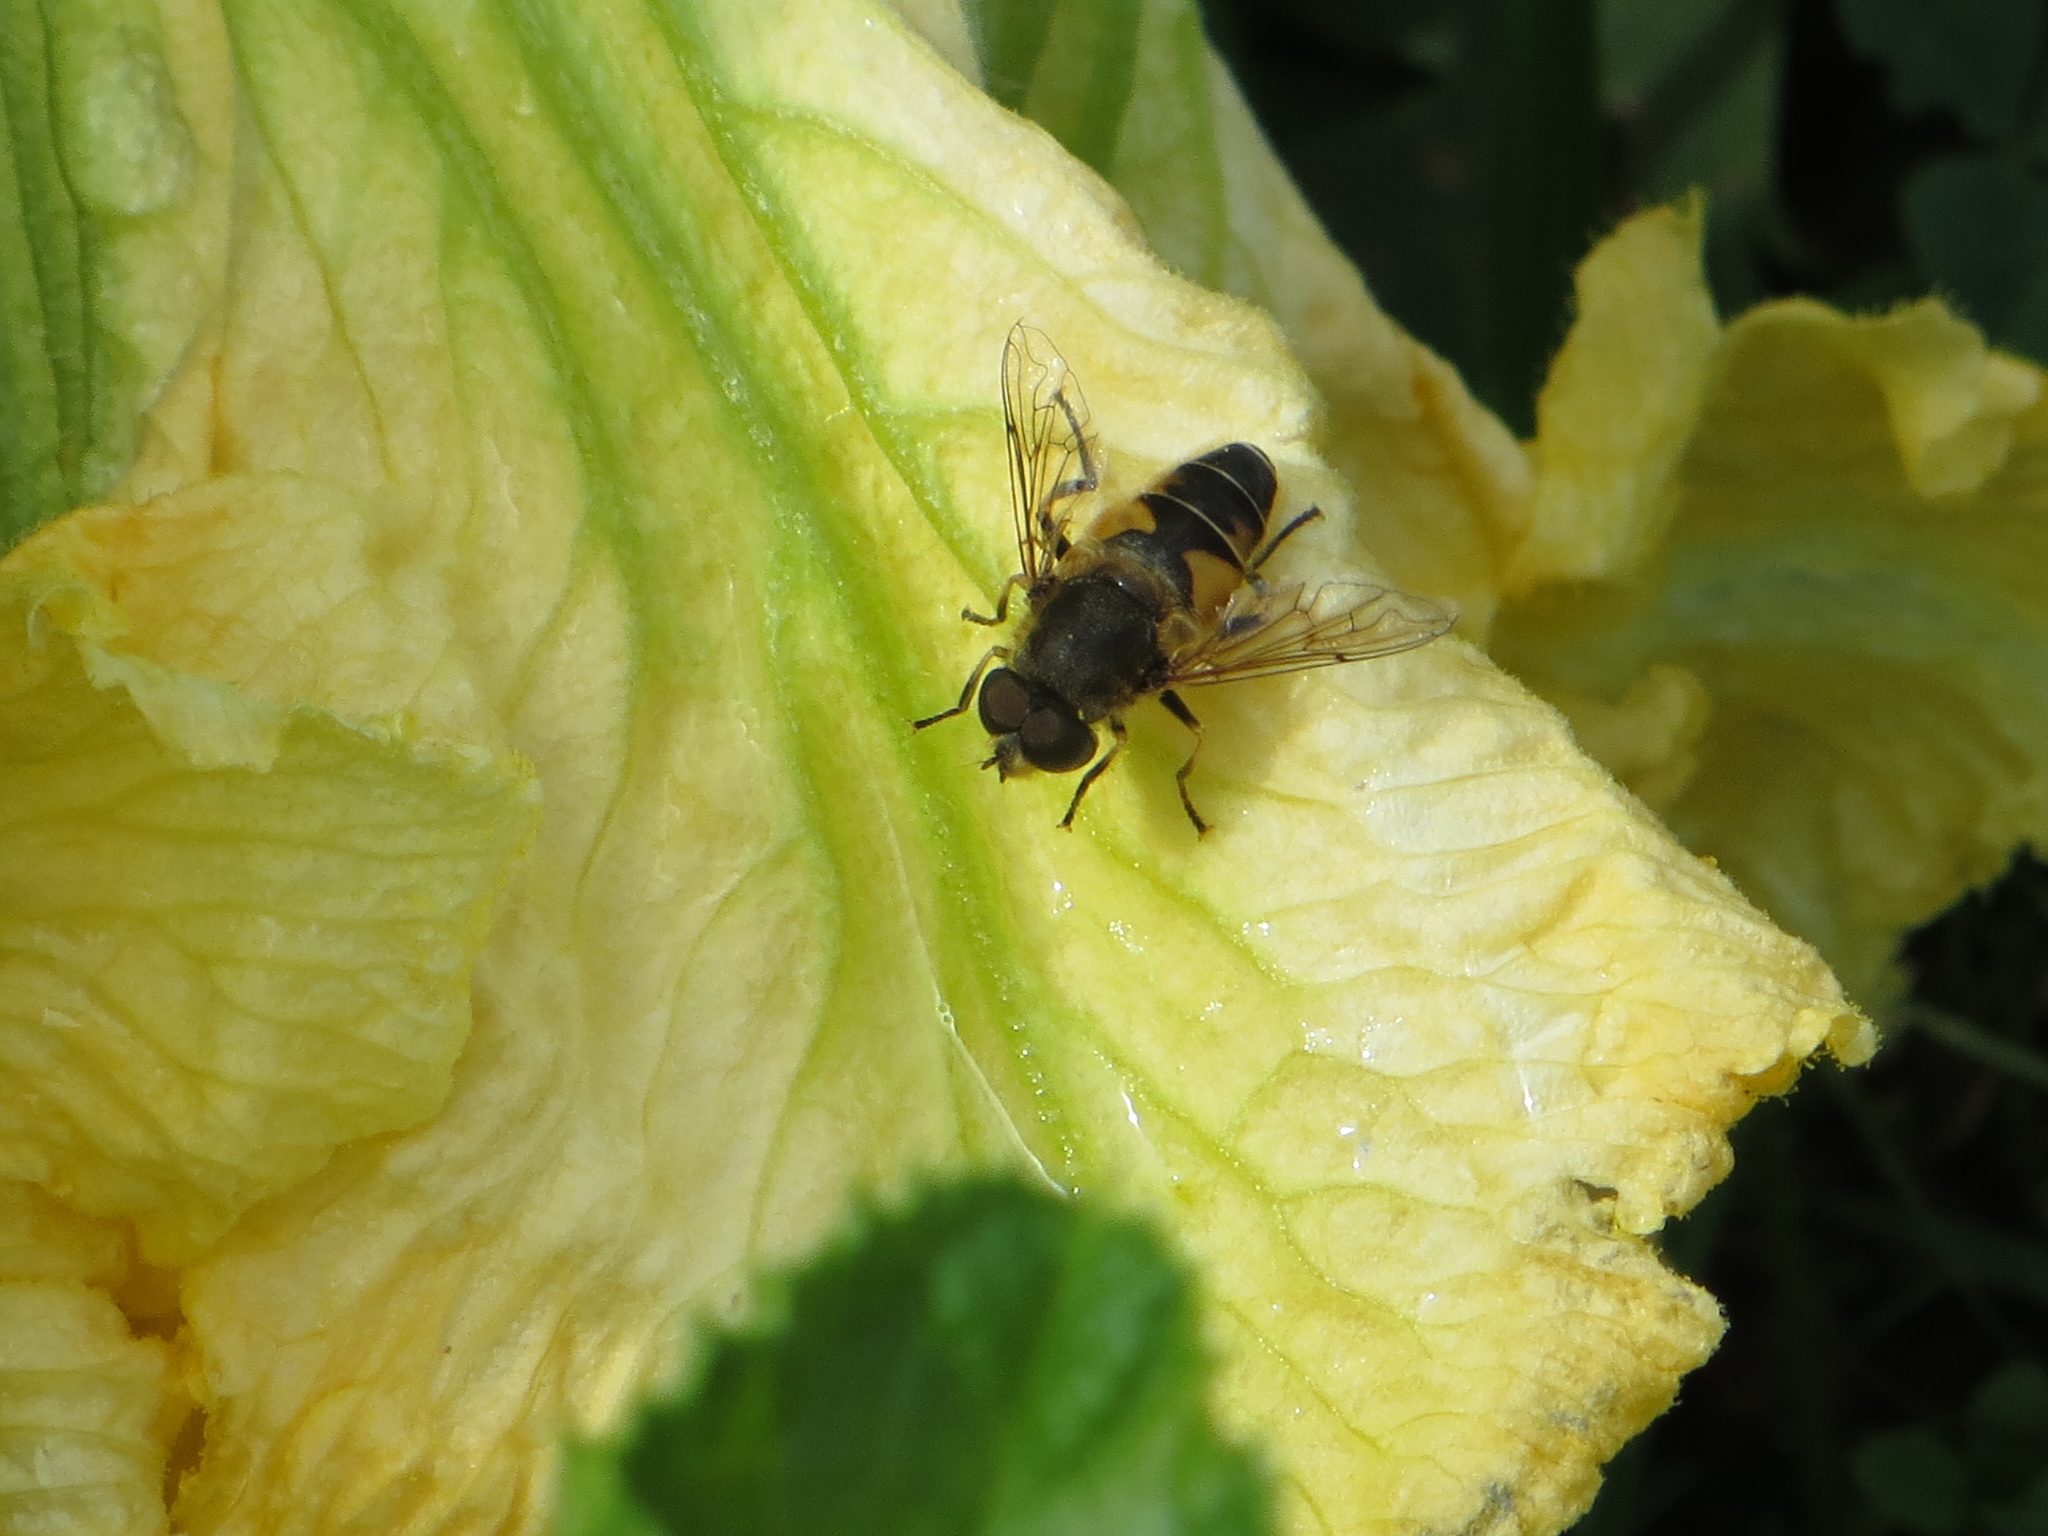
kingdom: Animalia
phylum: Arthropoda
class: Insecta
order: Diptera
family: Syrphidae
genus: Eristalis
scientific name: Eristalis nemorum
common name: Orange-spined drone fly
